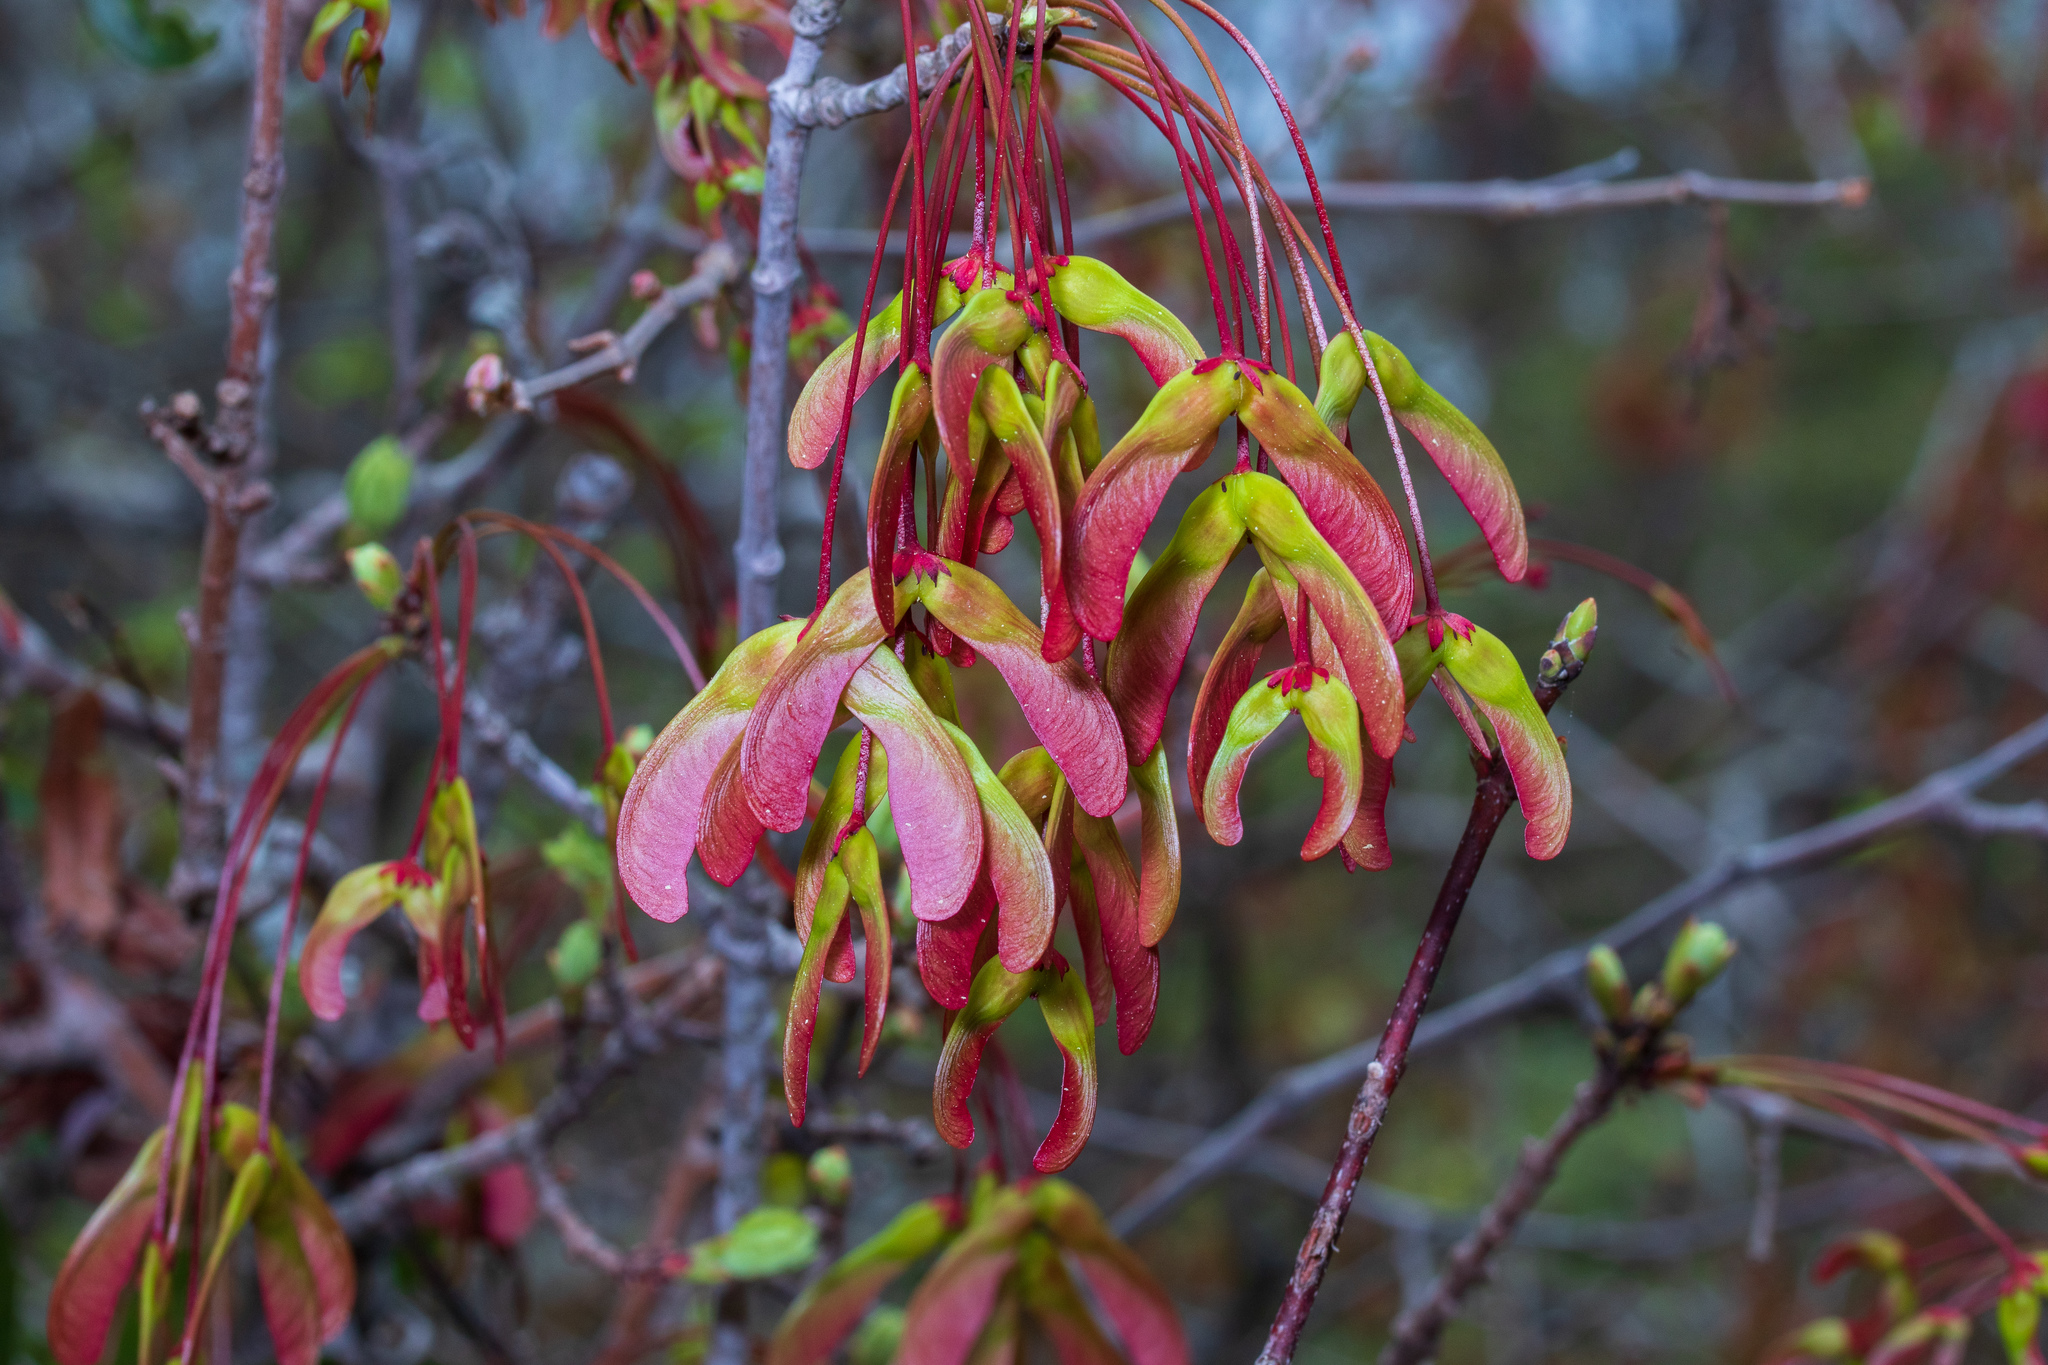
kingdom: Plantae
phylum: Tracheophyta
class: Magnoliopsida
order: Sapindales
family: Sapindaceae
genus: Acer
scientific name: Acer rubrum
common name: Red maple
